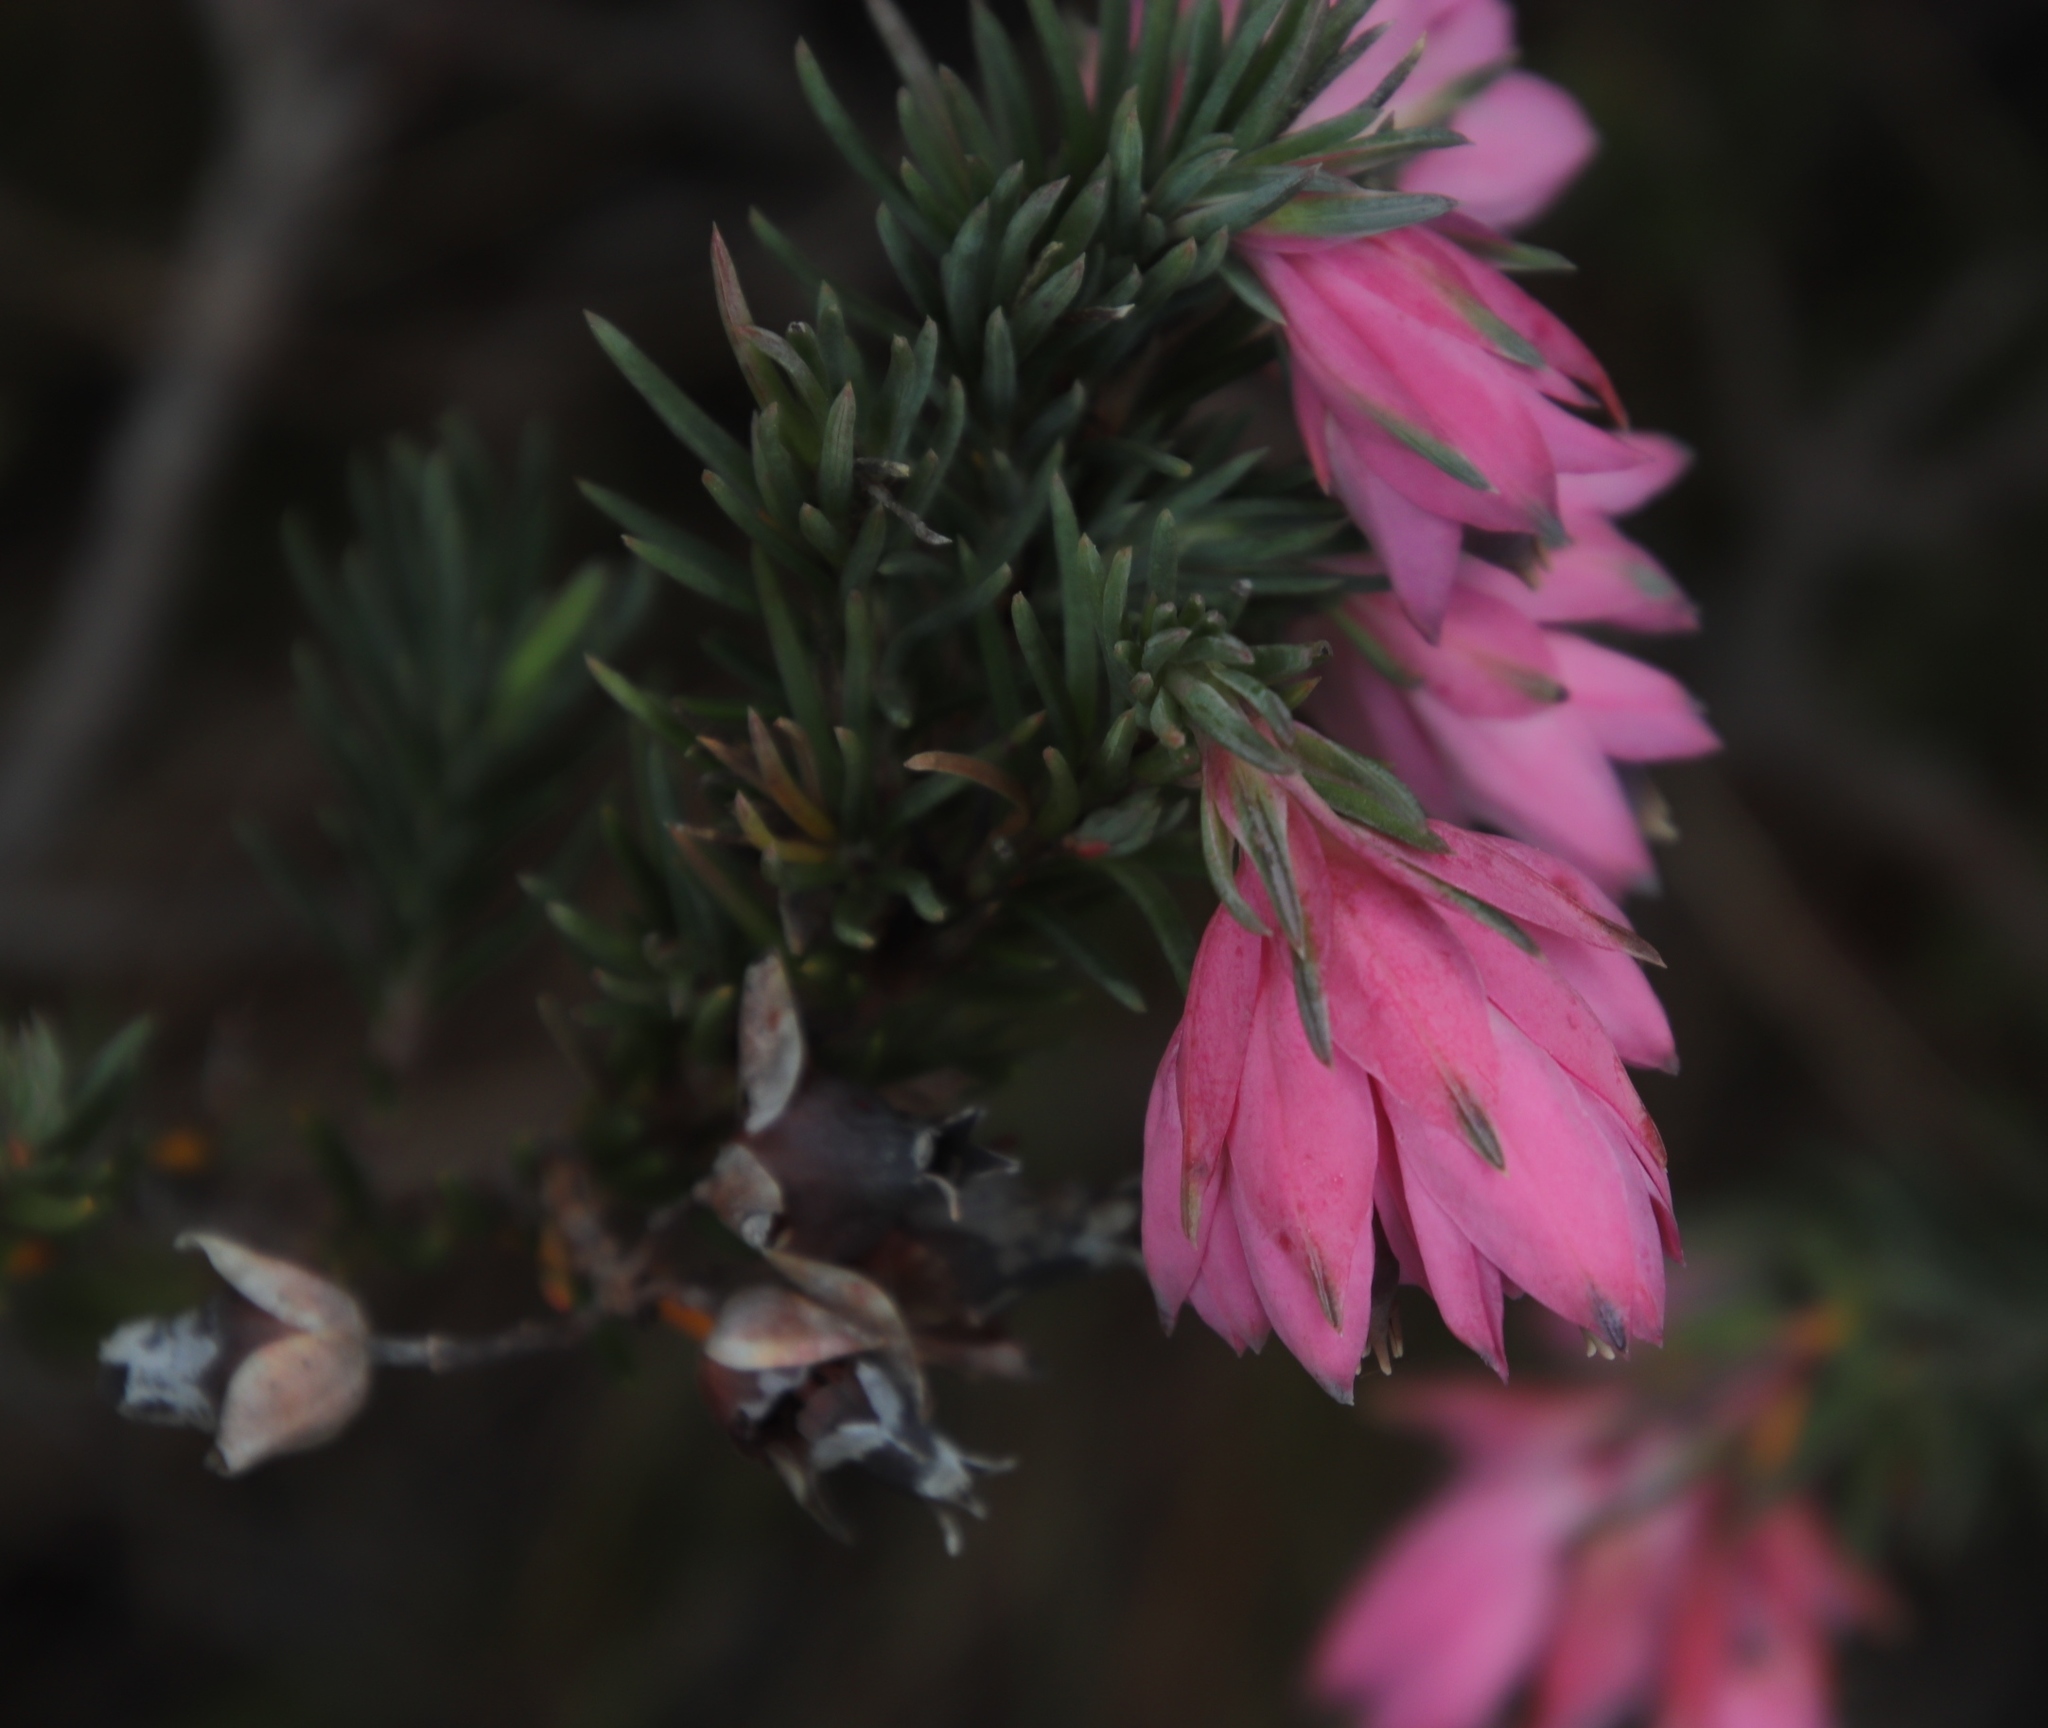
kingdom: Plantae
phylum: Tracheophyta
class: Magnoliopsida
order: Ericales
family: Ericaceae
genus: Erica
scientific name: Erica glauca
